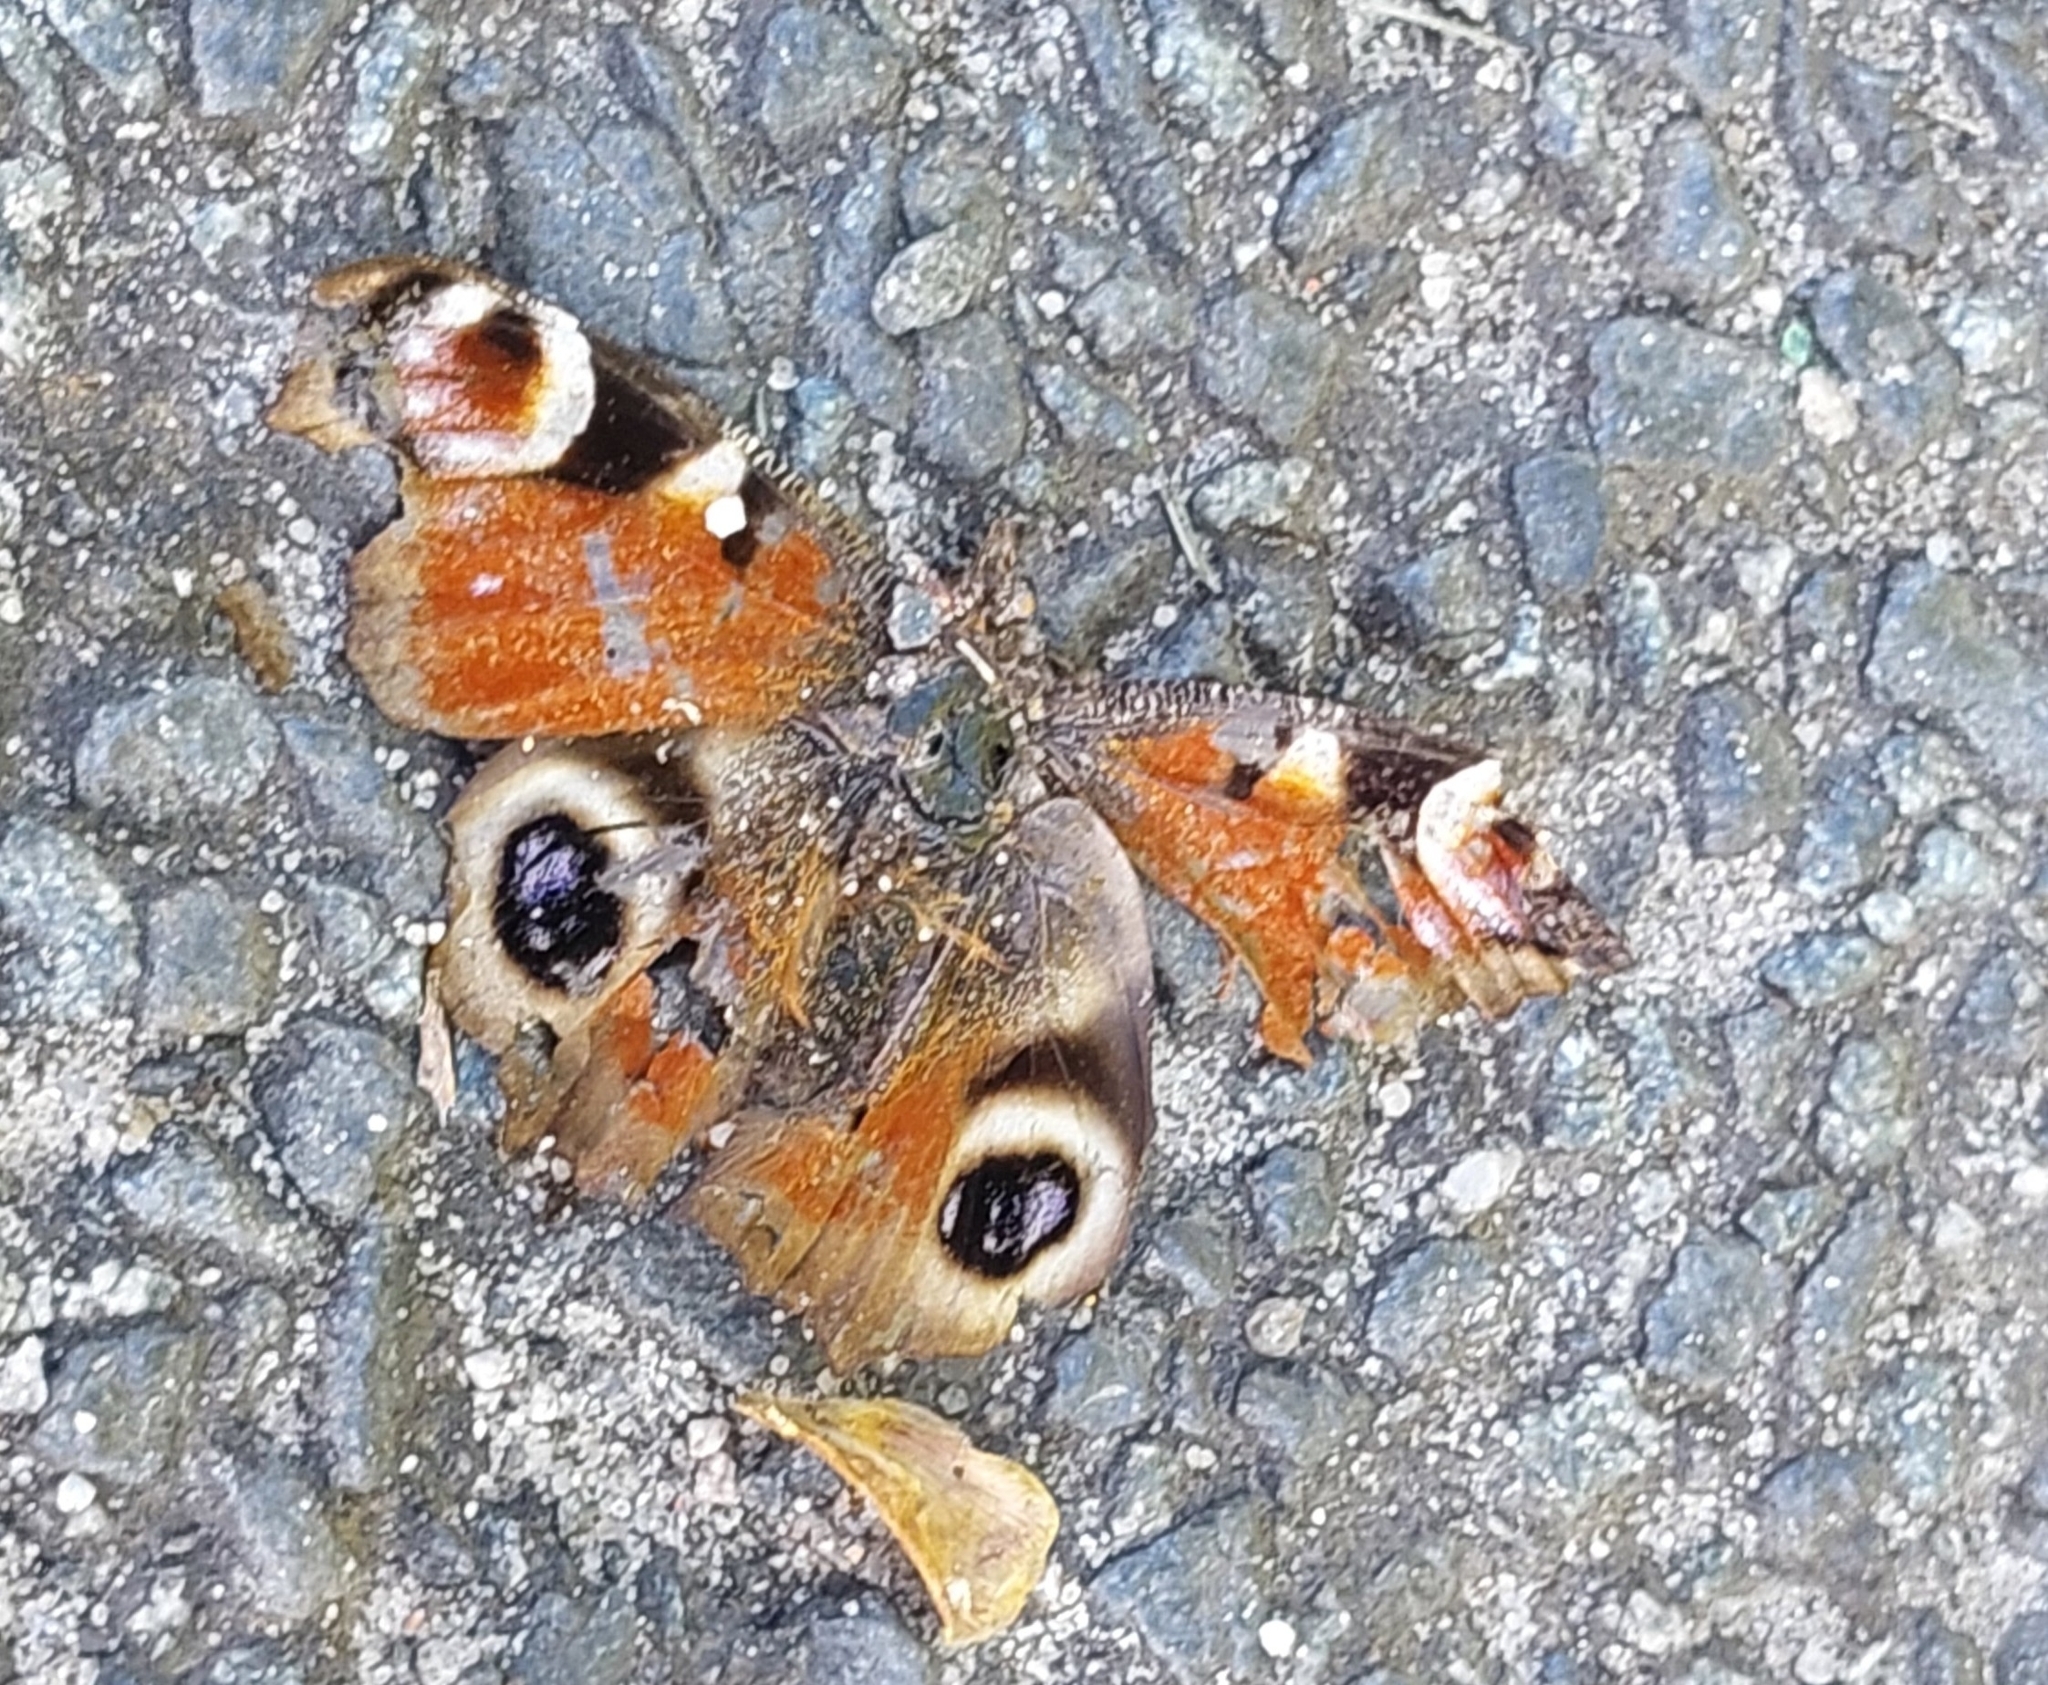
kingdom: Animalia
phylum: Arthropoda
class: Insecta
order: Lepidoptera
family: Nymphalidae
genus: Aglais
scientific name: Aglais io
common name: Peacock
